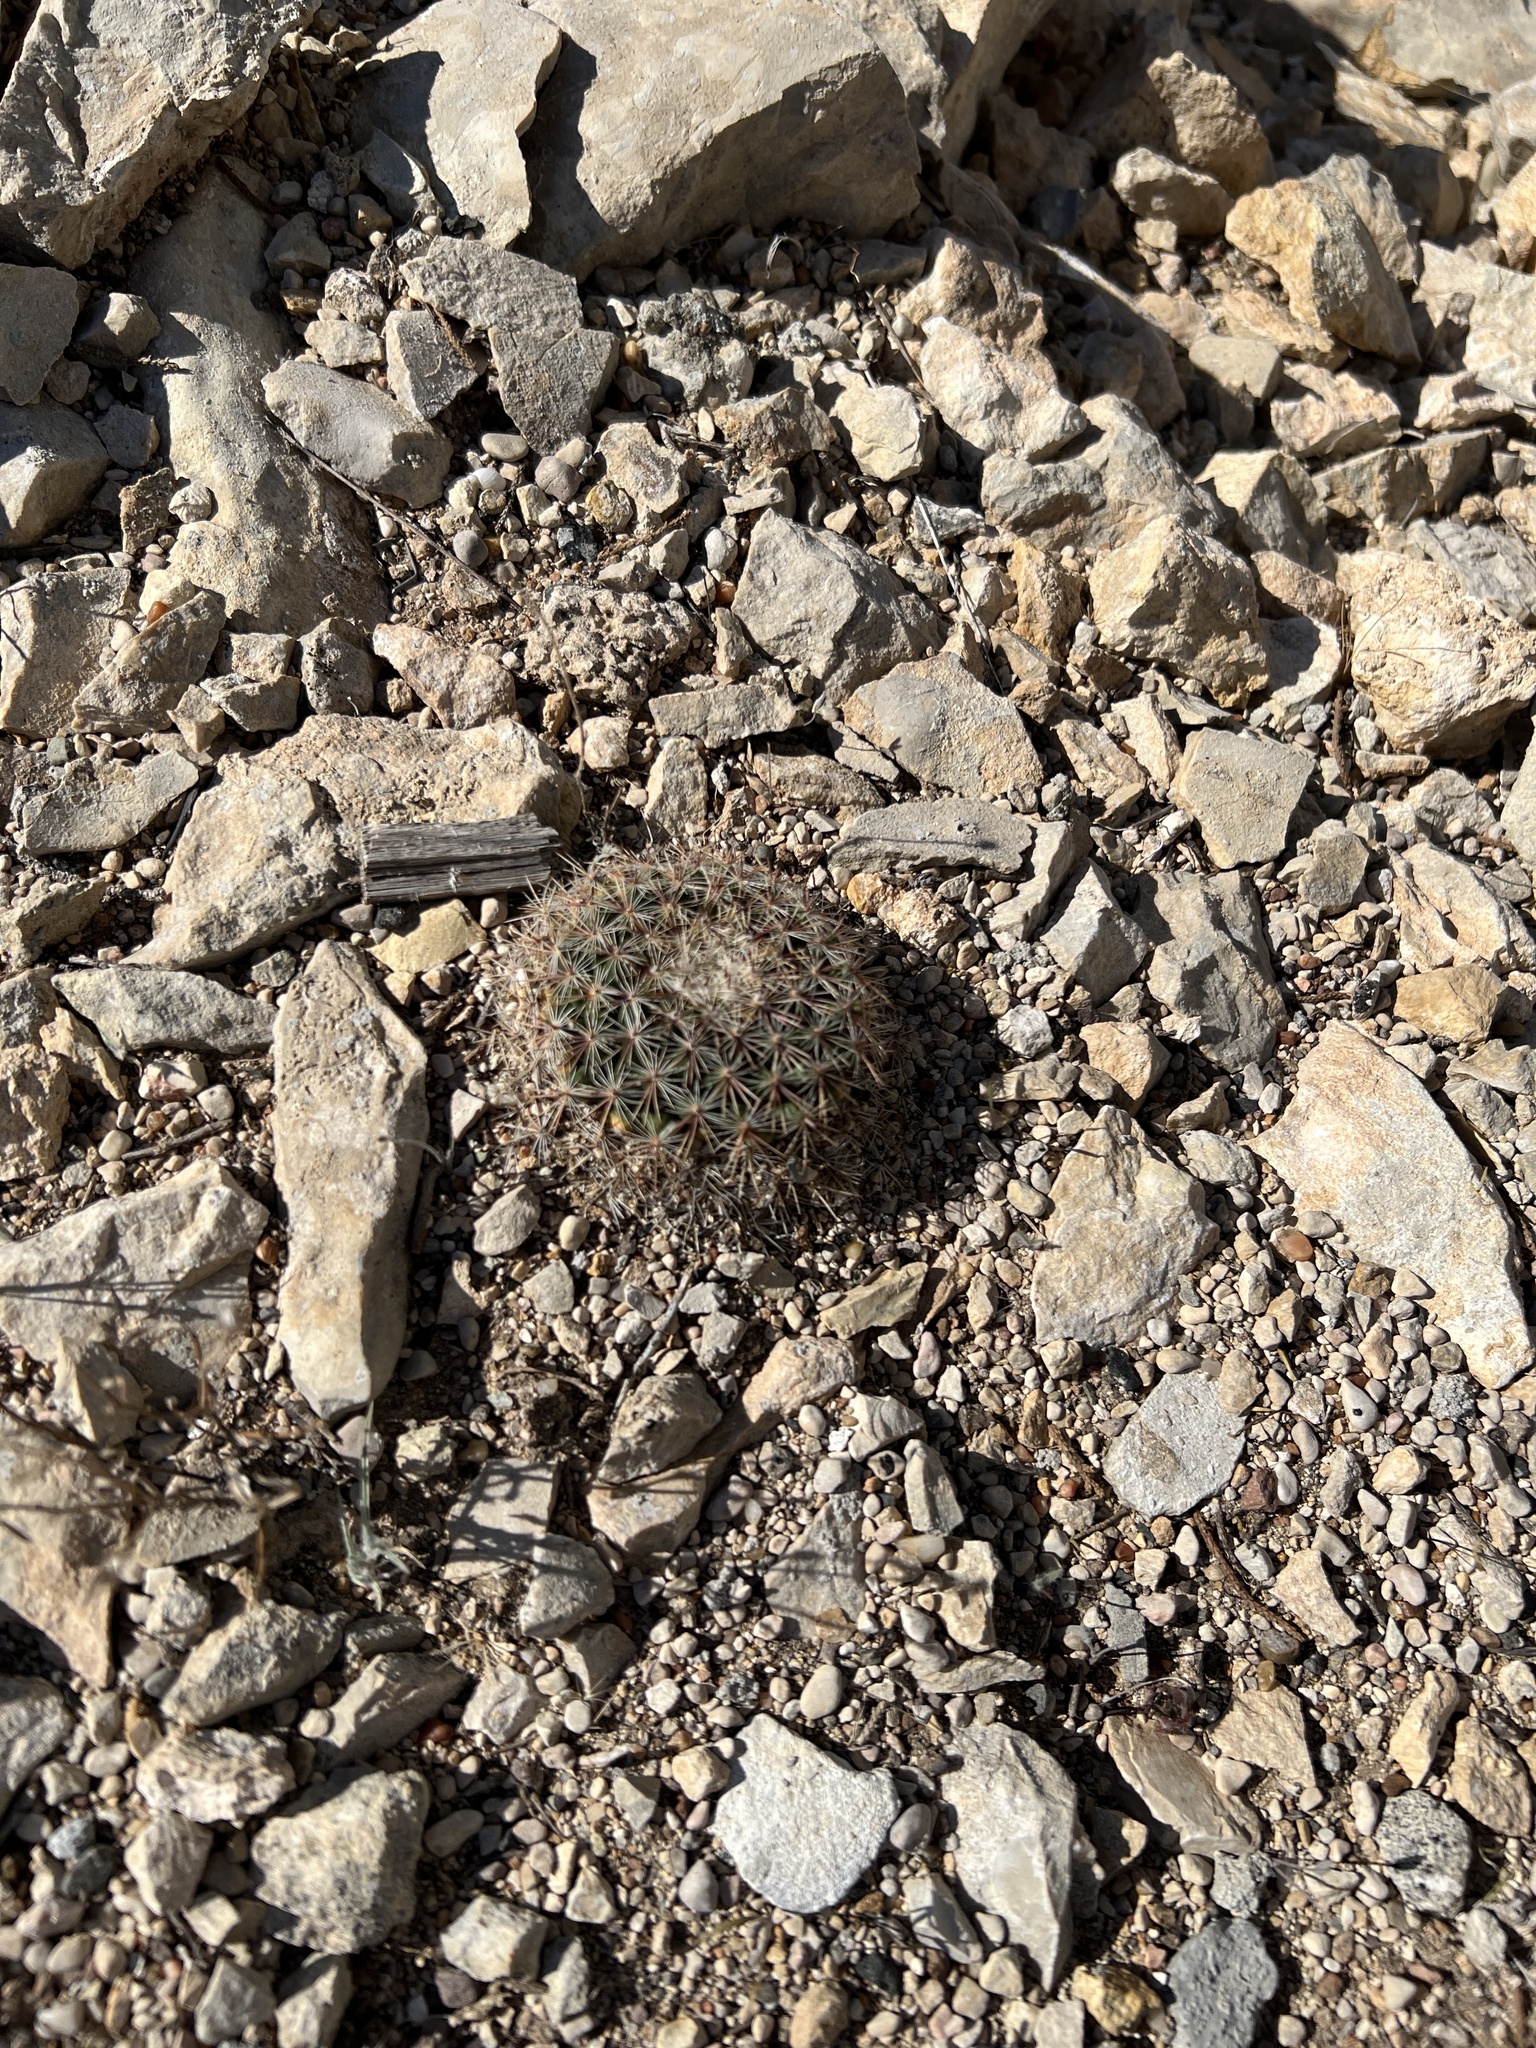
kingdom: Plantae
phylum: Tracheophyta
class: Magnoliopsida
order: Caryophyllales
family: Cactaceae
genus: Mammillaria
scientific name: Mammillaria heyderi
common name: Little nipple cactus
